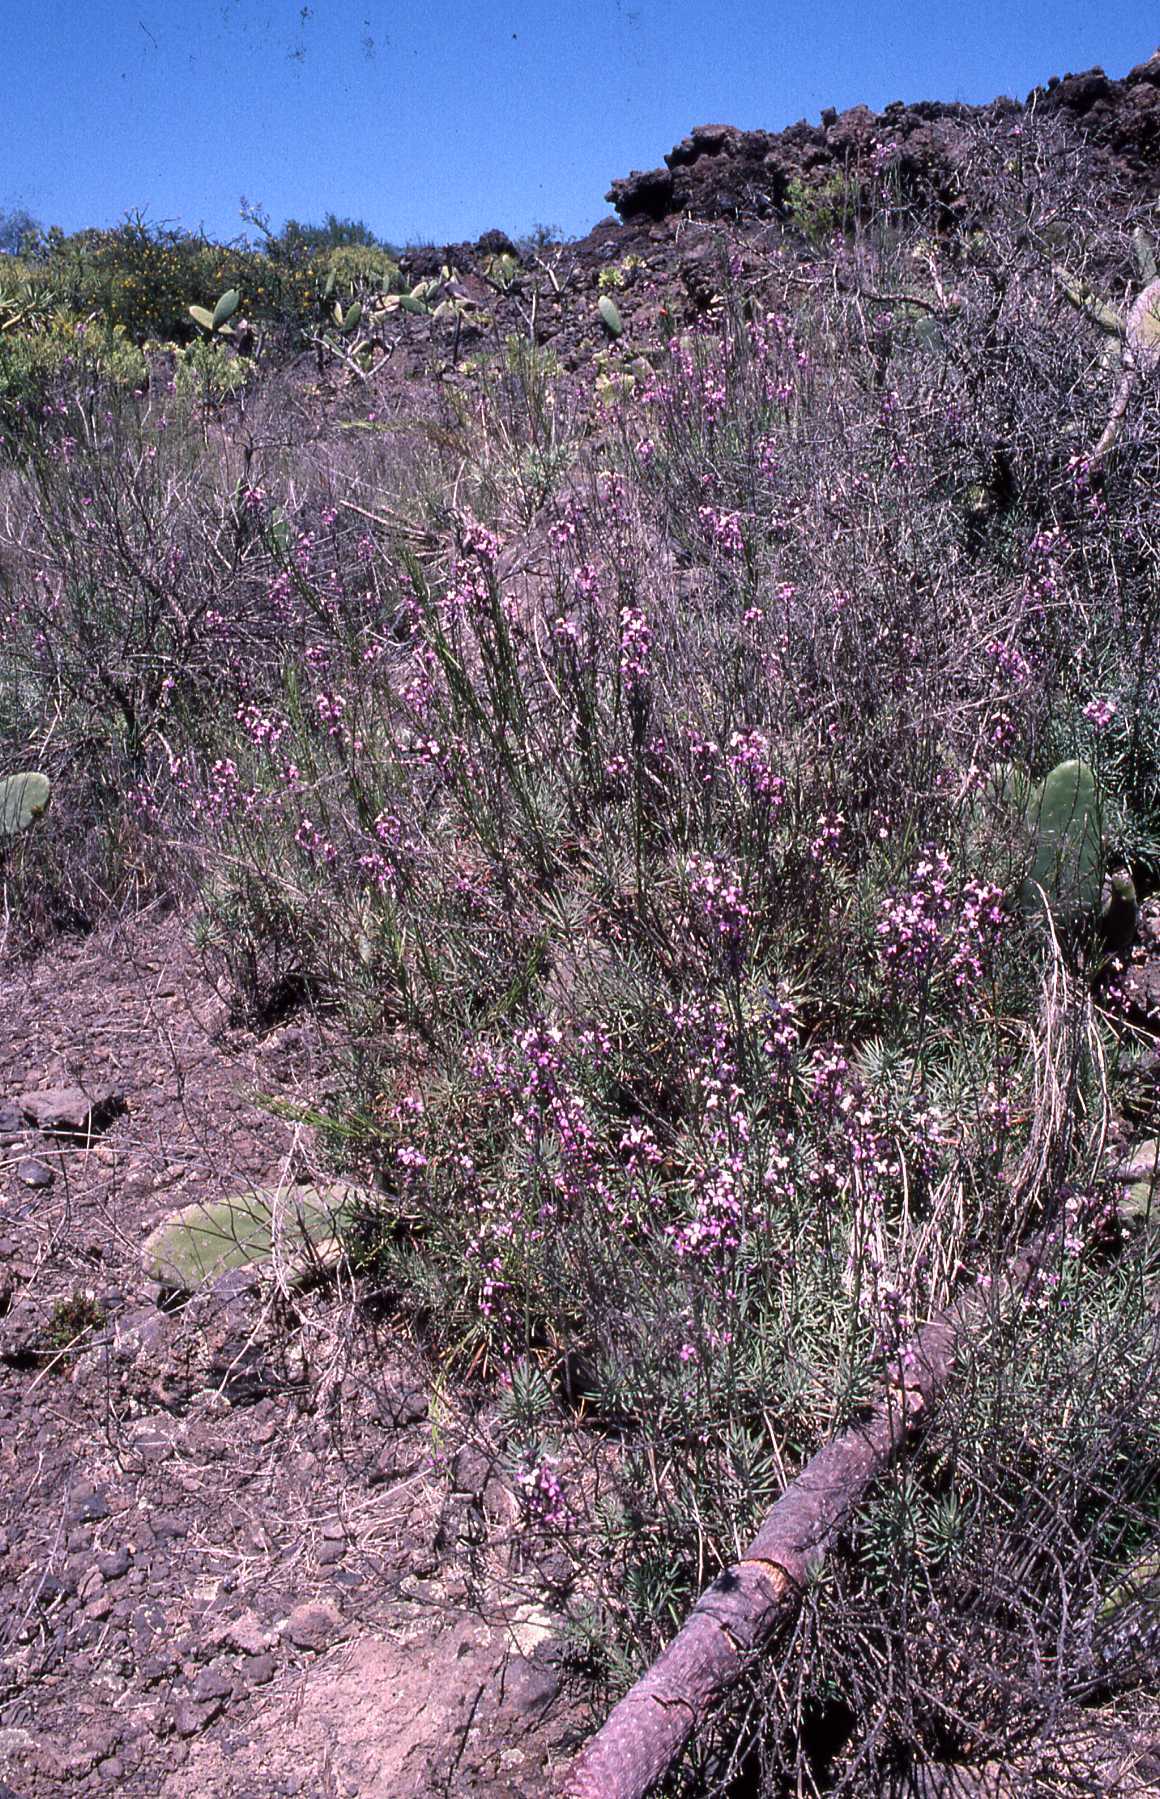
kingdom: Plantae
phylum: Tracheophyta
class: Magnoliopsida
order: Brassicales
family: Brassicaceae
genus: Erysimum
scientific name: Erysimum scoparium
